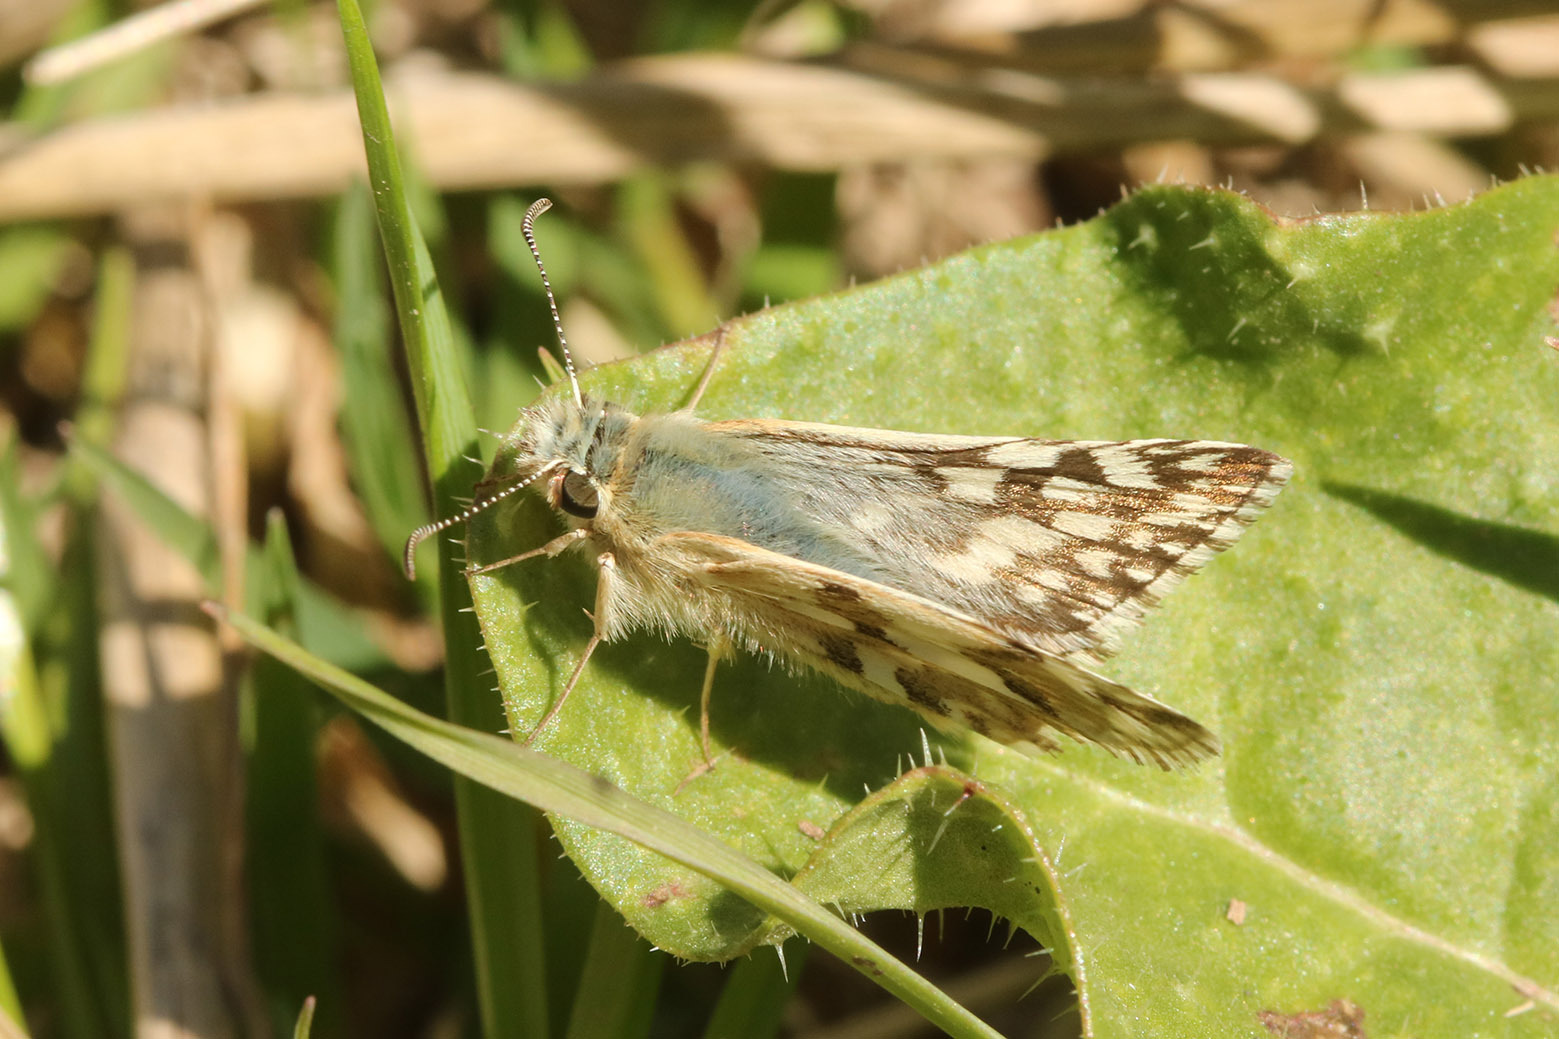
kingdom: Animalia
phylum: Arthropoda
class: Insecta
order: Lepidoptera
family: Hesperiidae
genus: Heliopetes
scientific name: Heliopetes americanus
